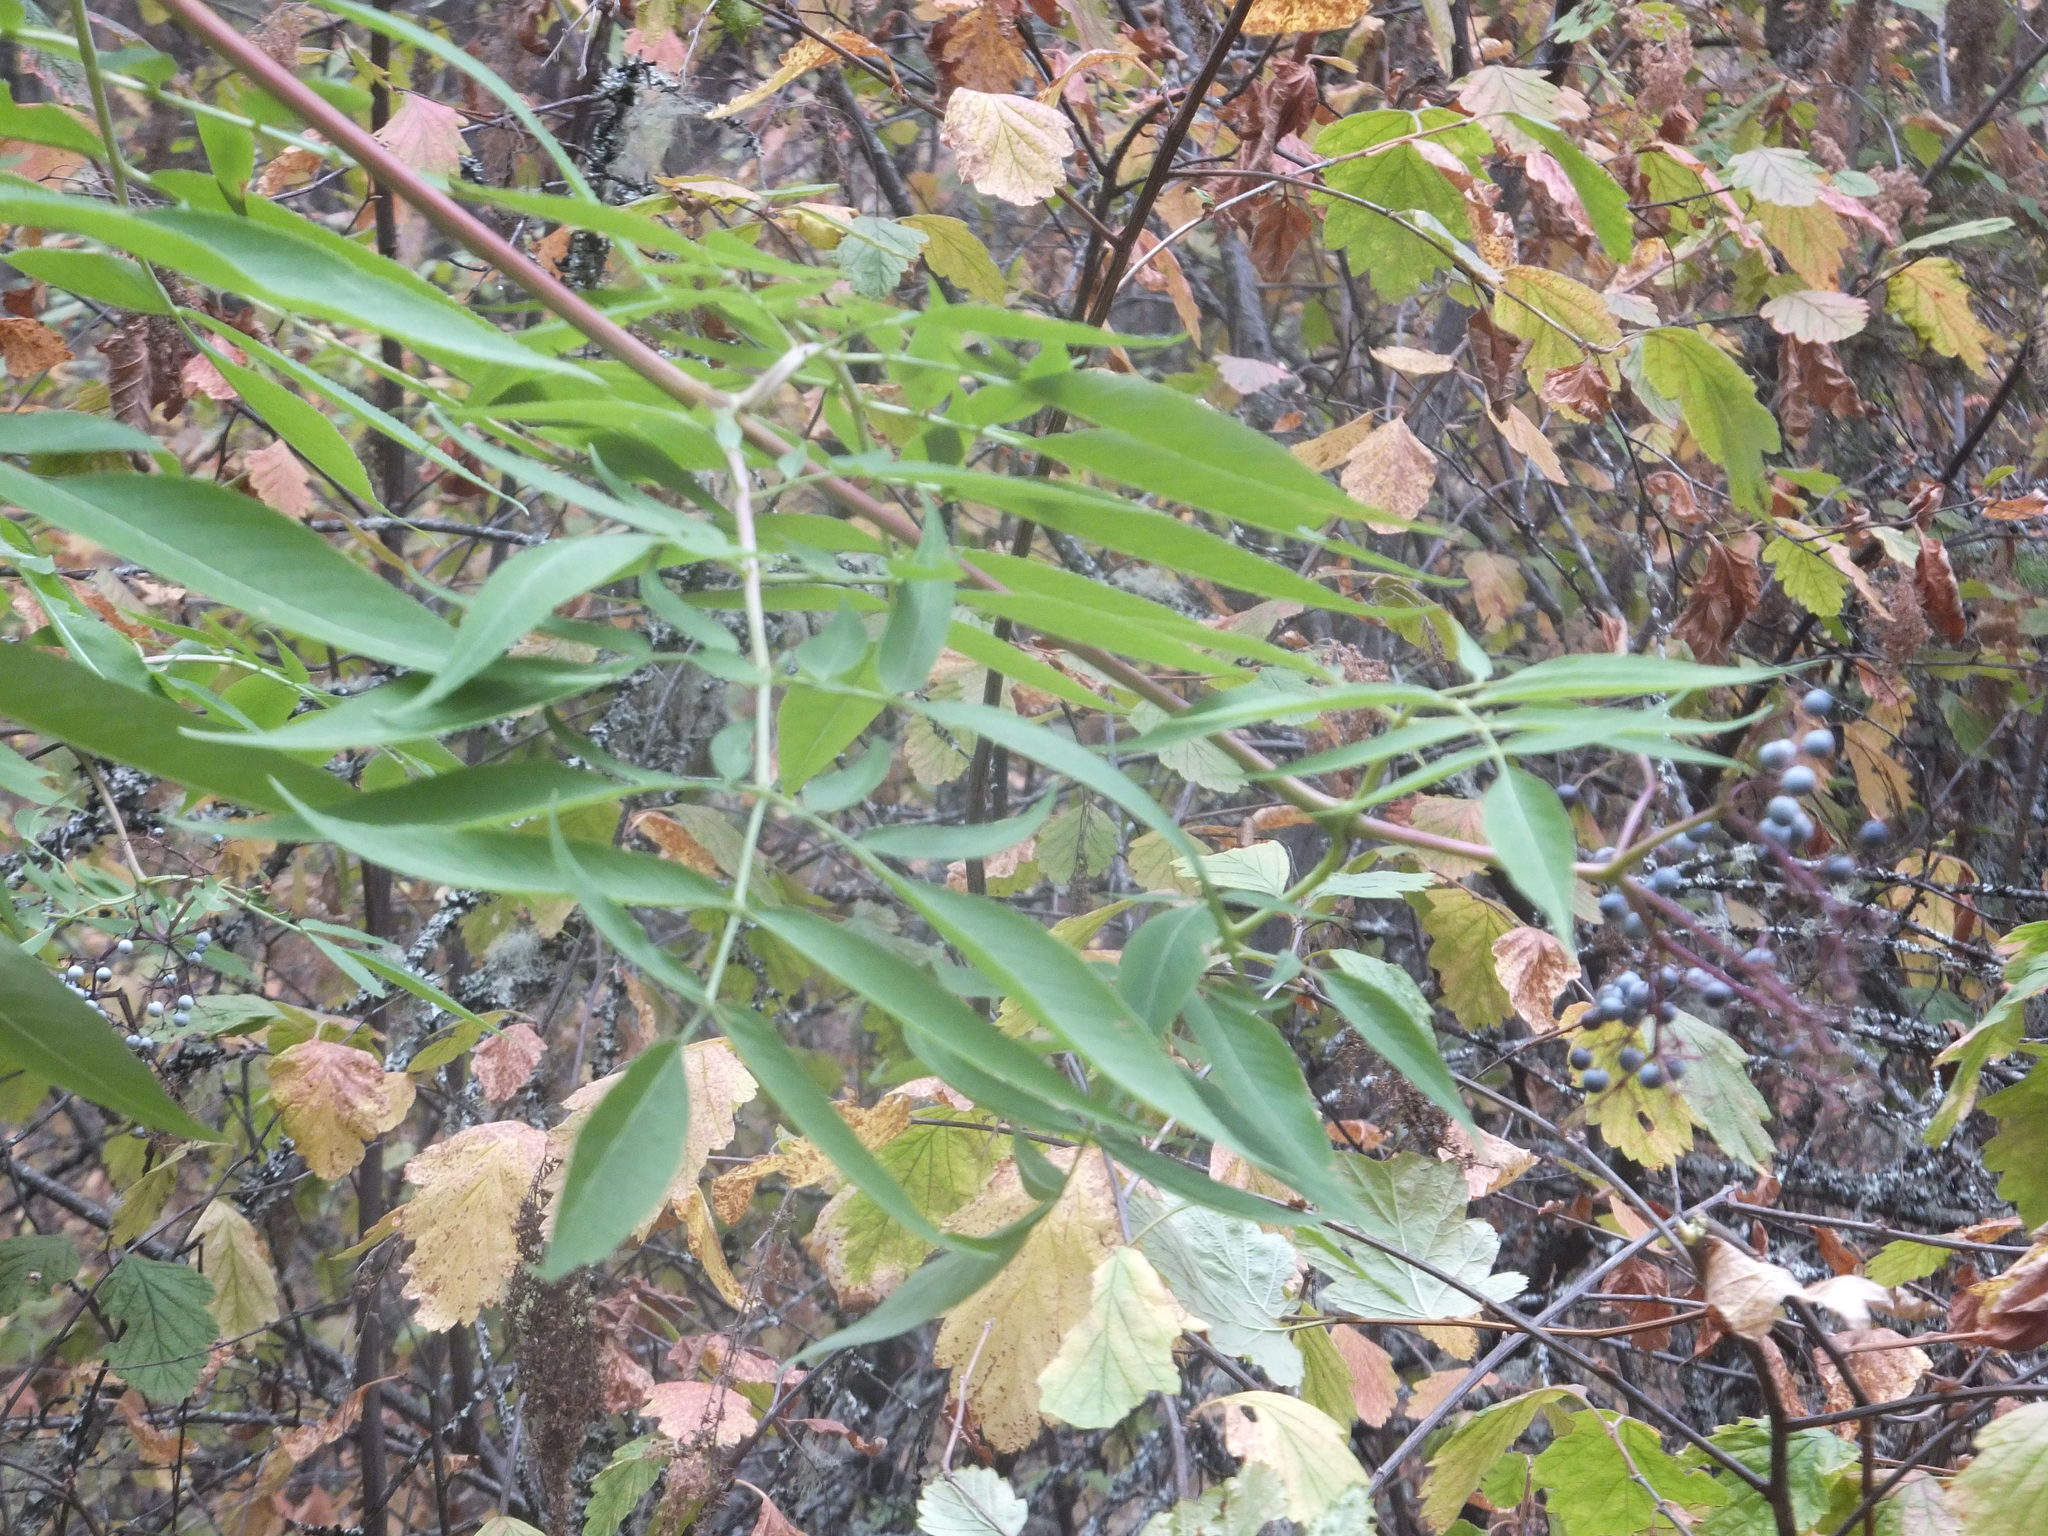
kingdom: Plantae
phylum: Tracheophyta
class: Magnoliopsida
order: Dipsacales
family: Viburnaceae
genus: Sambucus
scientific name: Sambucus cerulea
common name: Blue elder
